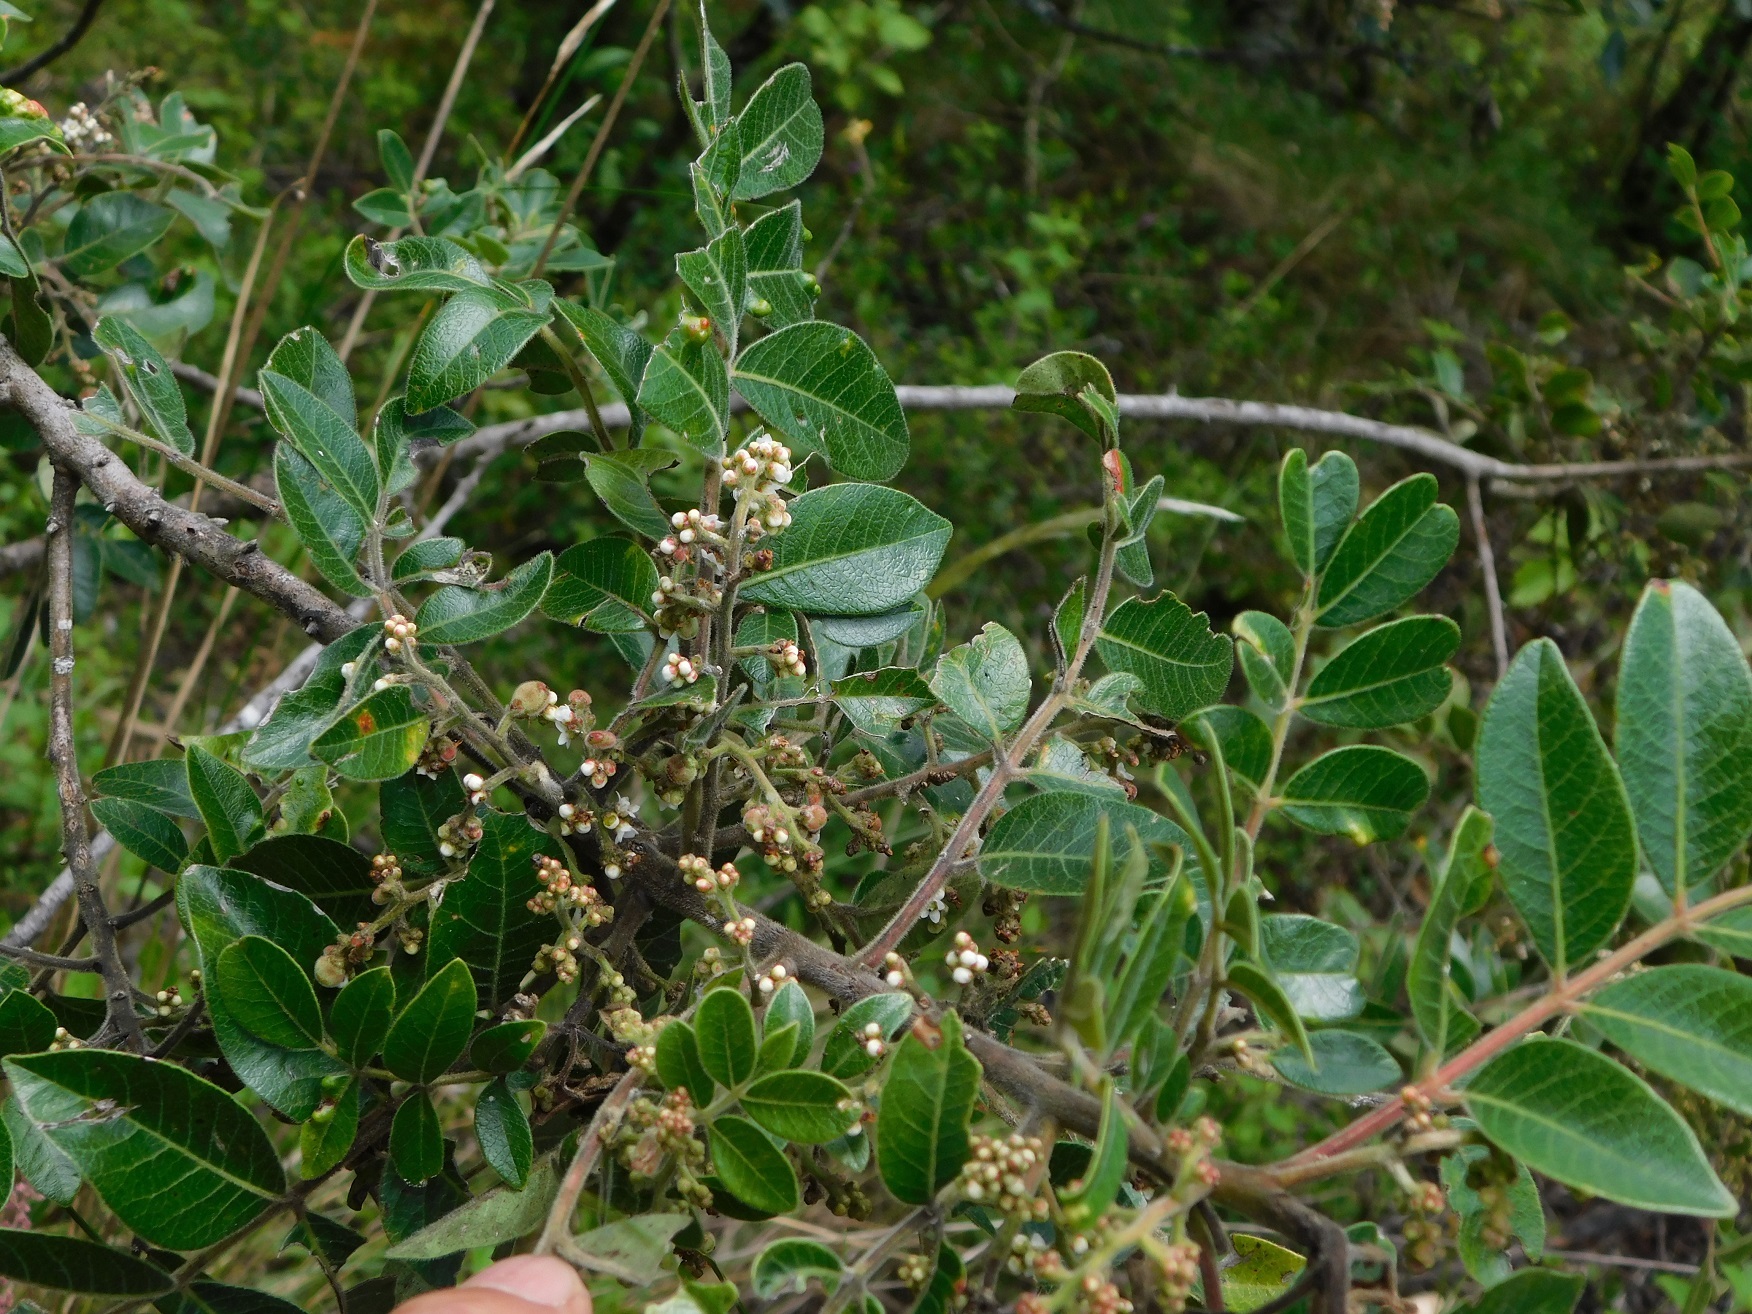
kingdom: Plantae
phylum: Tracheophyta
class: Magnoliopsida
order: Sapindales
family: Anacardiaceae
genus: Rhus
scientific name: Rhus schiedeana
